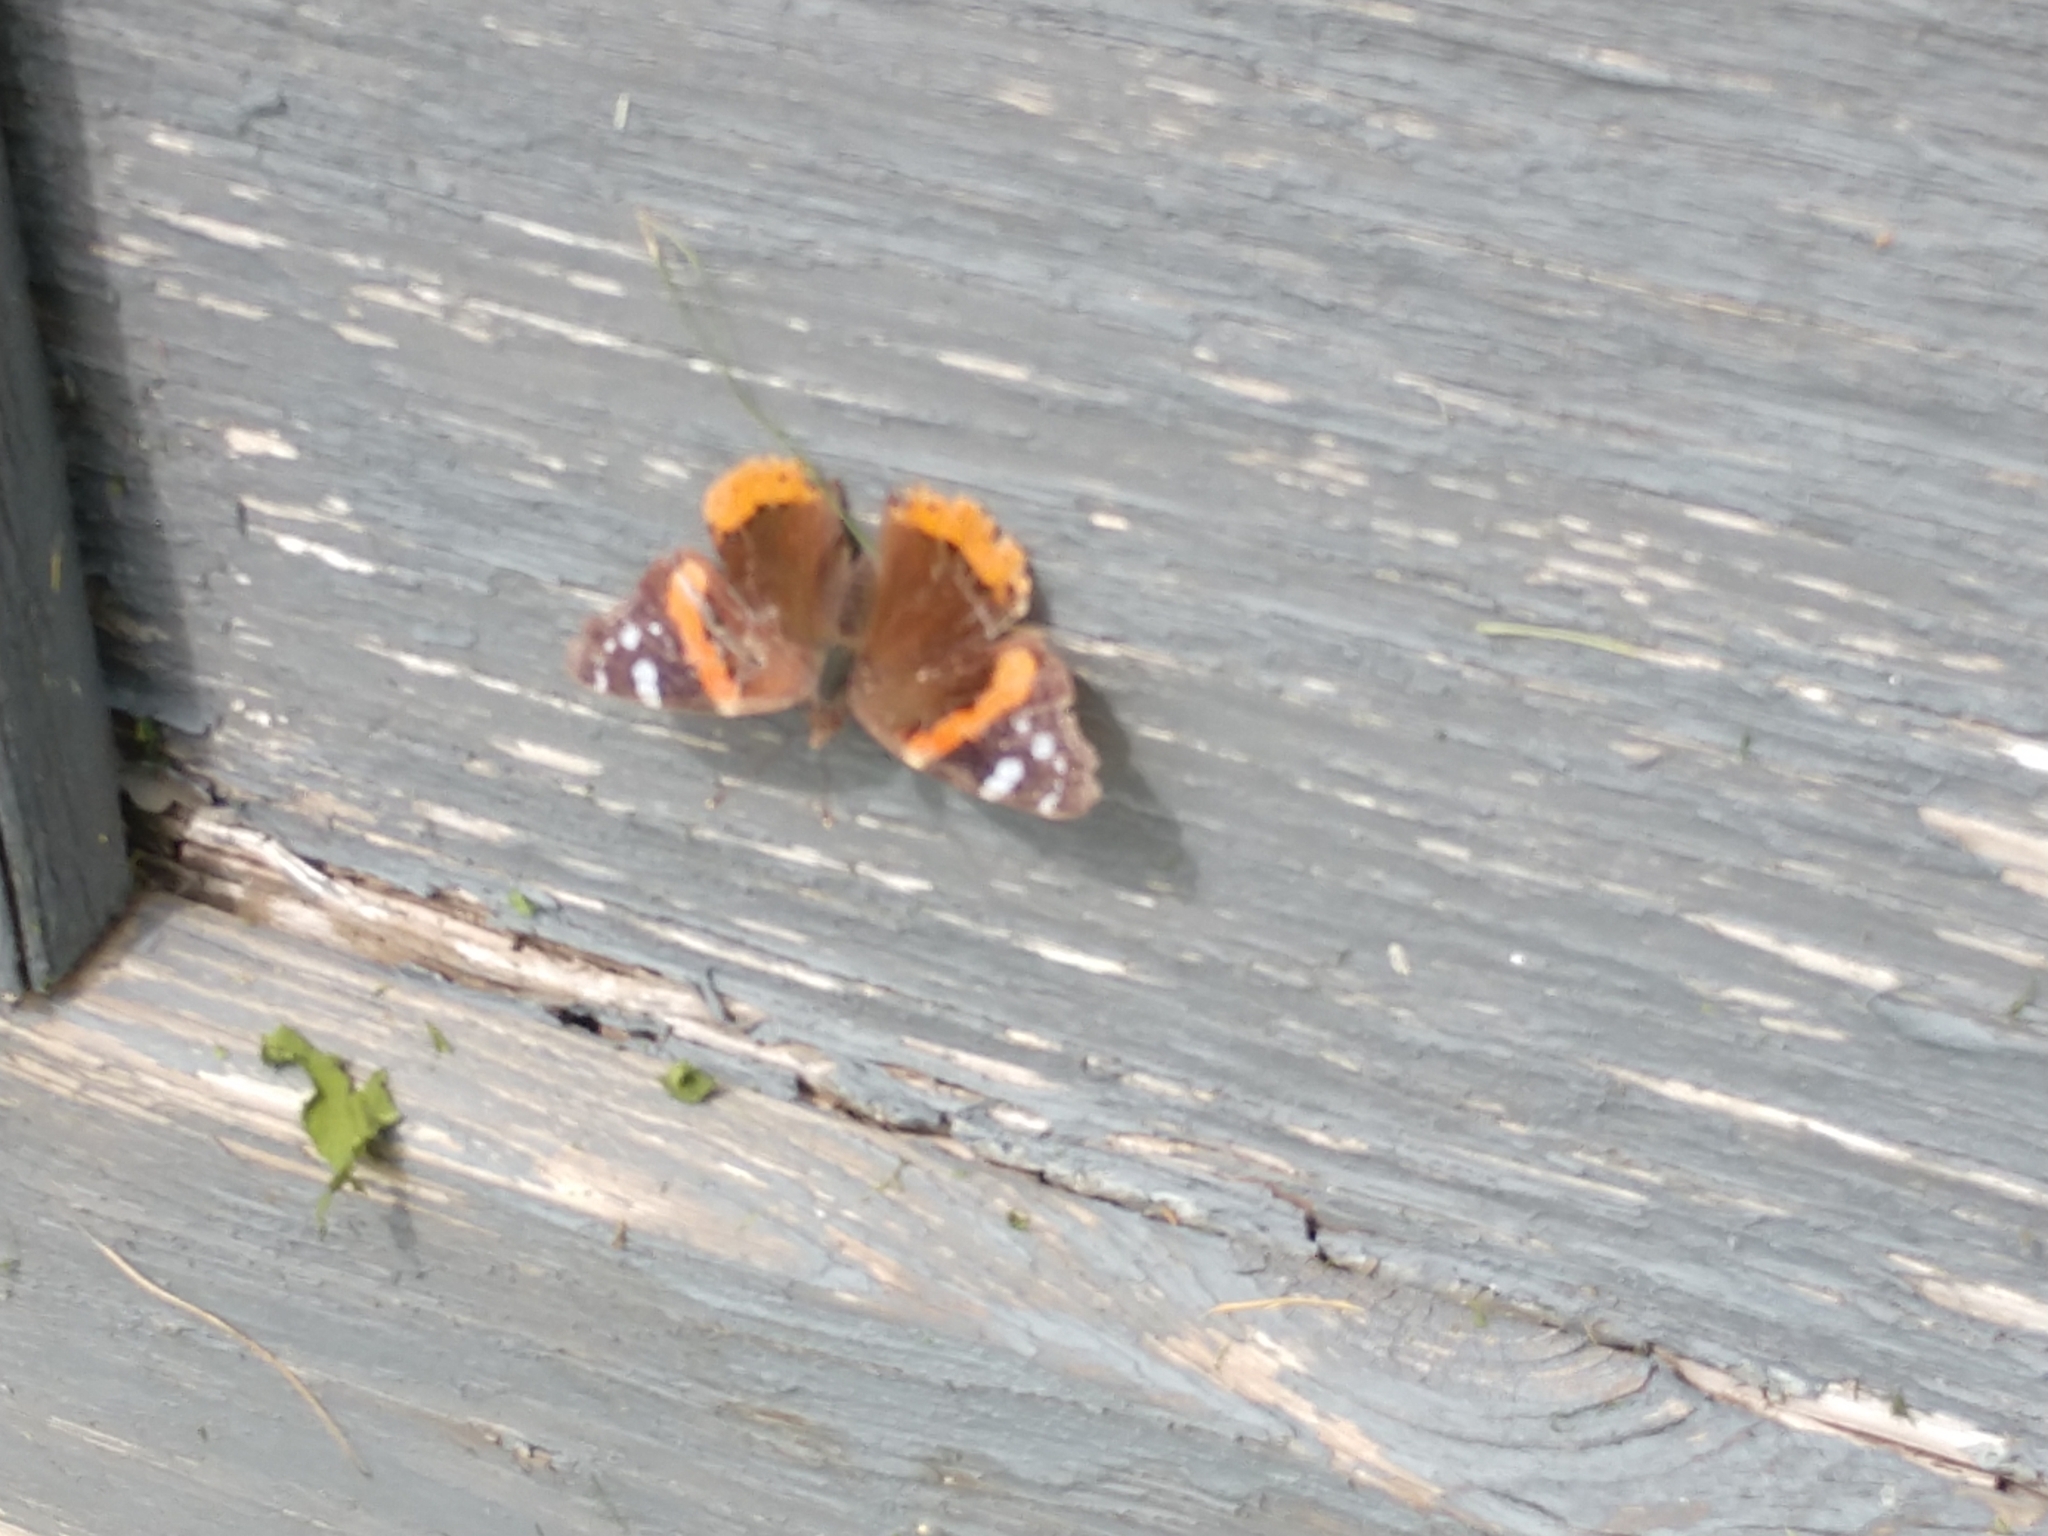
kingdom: Animalia
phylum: Arthropoda
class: Insecta
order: Lepidoptera
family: Nymphalidae
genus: Vanessa
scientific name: Vanessa atalanta
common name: Red admiral
